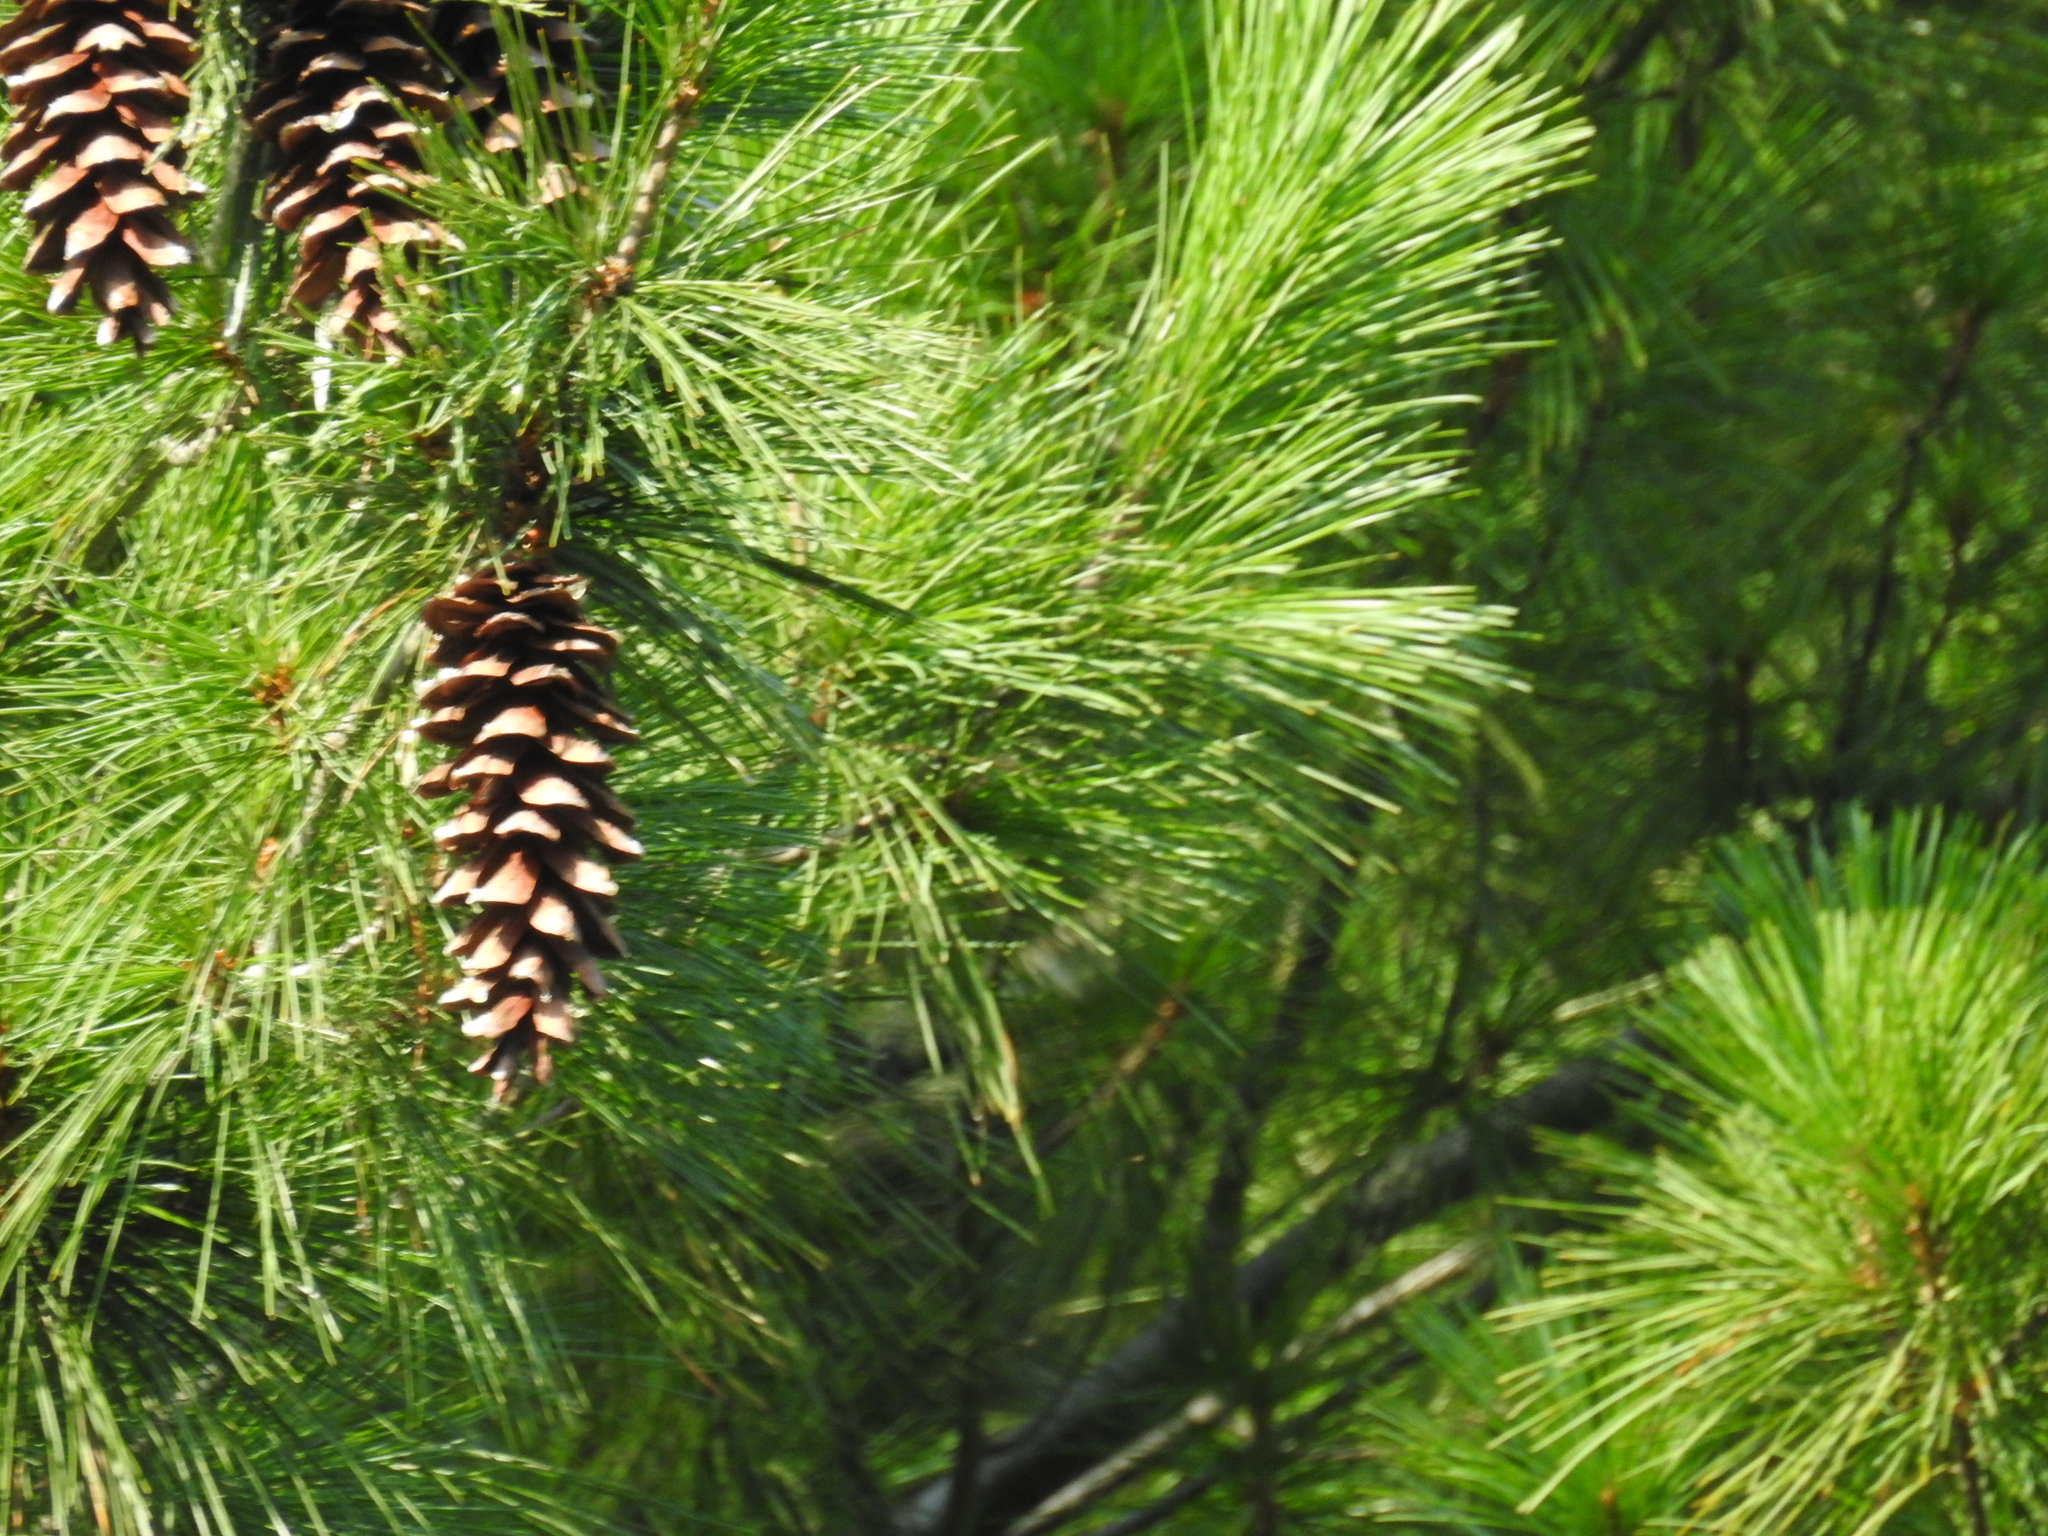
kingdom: Plantae
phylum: Tracheophyta
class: Pinopsida
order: Pinales
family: Pinaceae
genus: Pinus
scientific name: Pinus strobus
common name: Weymouth pine
